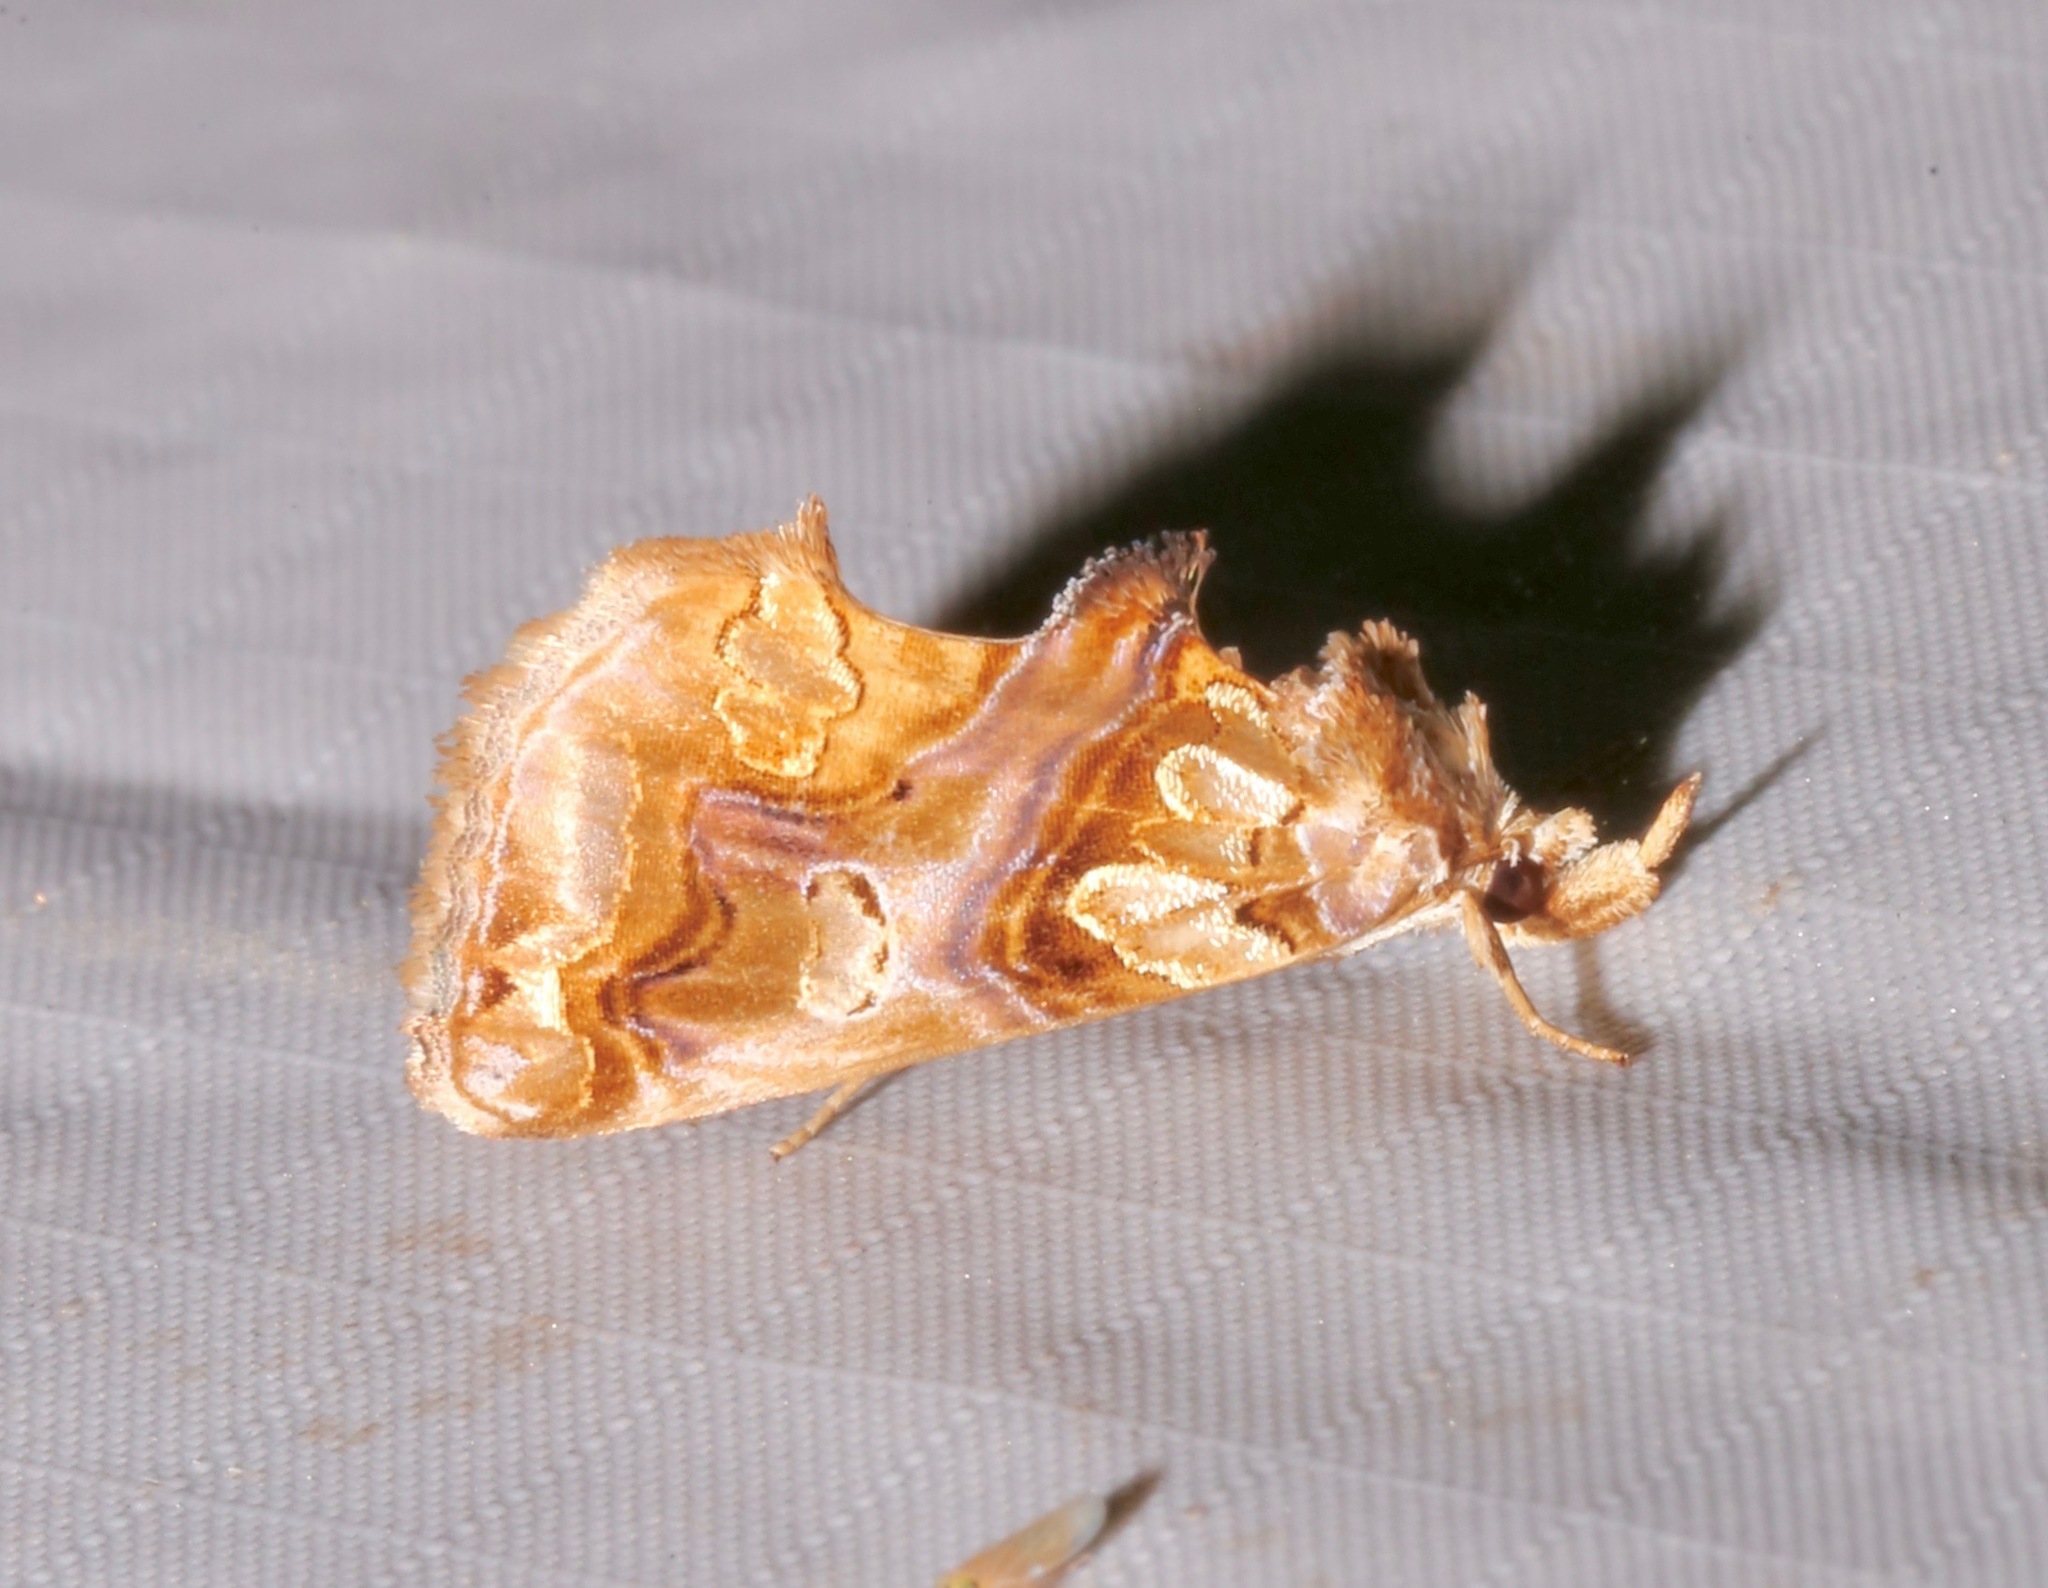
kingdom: Animalia
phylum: Arthropoda
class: Insecta
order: Lepidoptera
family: Erebidae
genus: Plusiodonta
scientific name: Plusiodonta compressipalpis
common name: Moonseed moth
